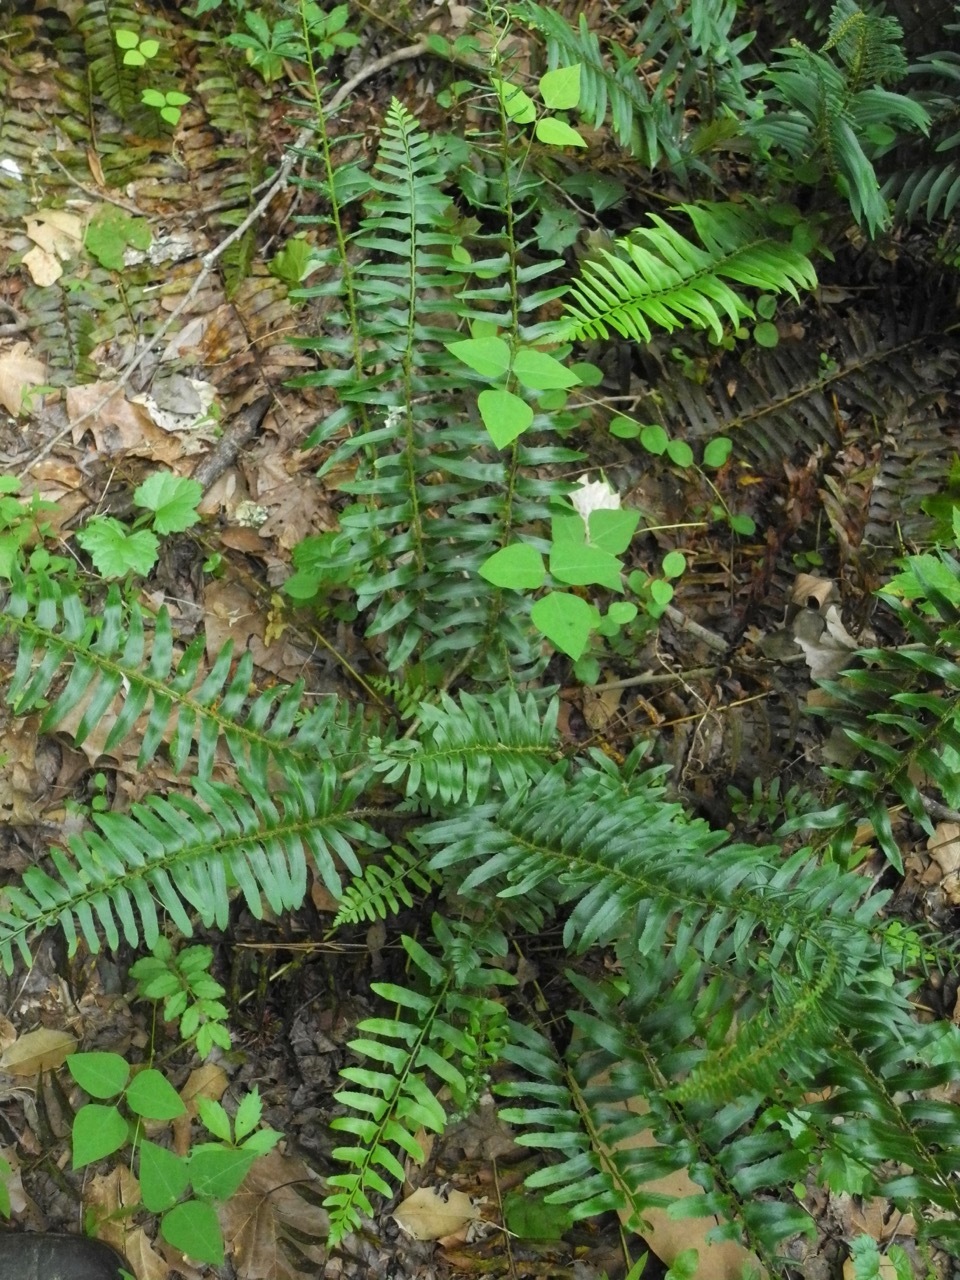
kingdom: Plantae
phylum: Tracheophyta
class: Magnoliopsida
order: Fabales
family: Fabaceae
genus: Amphicarpaea
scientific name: Amphicarpaea bracteata
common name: American hog peanut
